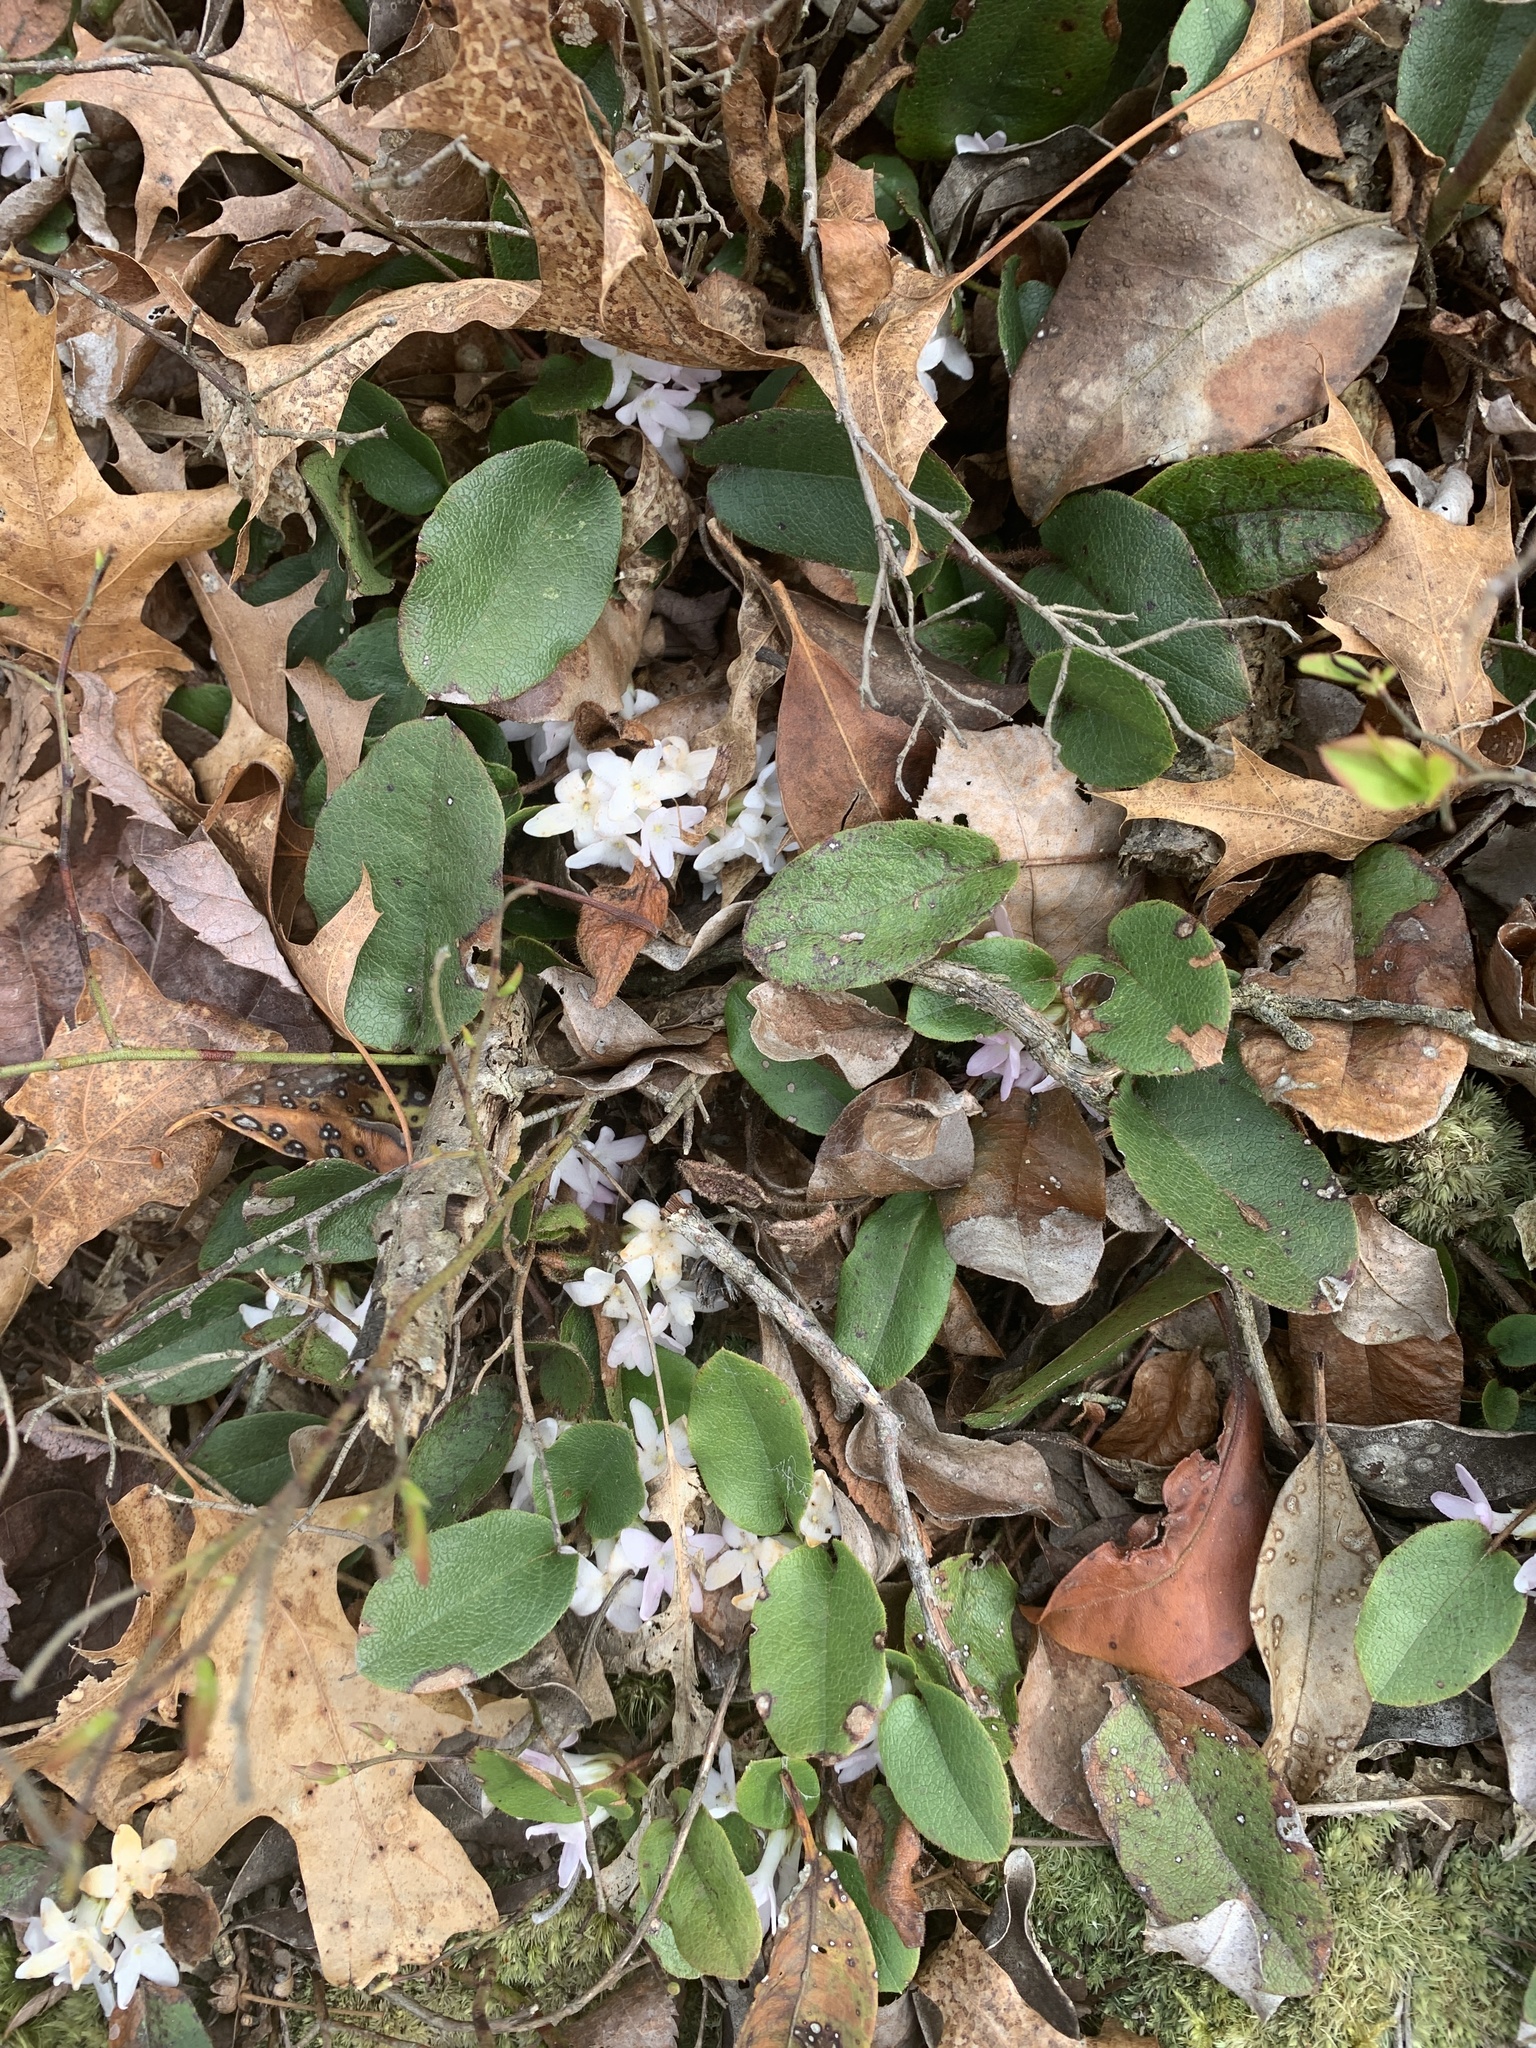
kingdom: Plantae
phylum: Tracheophyta
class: Magnoliopsida
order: Ericales
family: Ericaceae
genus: Epigaea
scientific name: Epigaea repens
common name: Gravelroot
